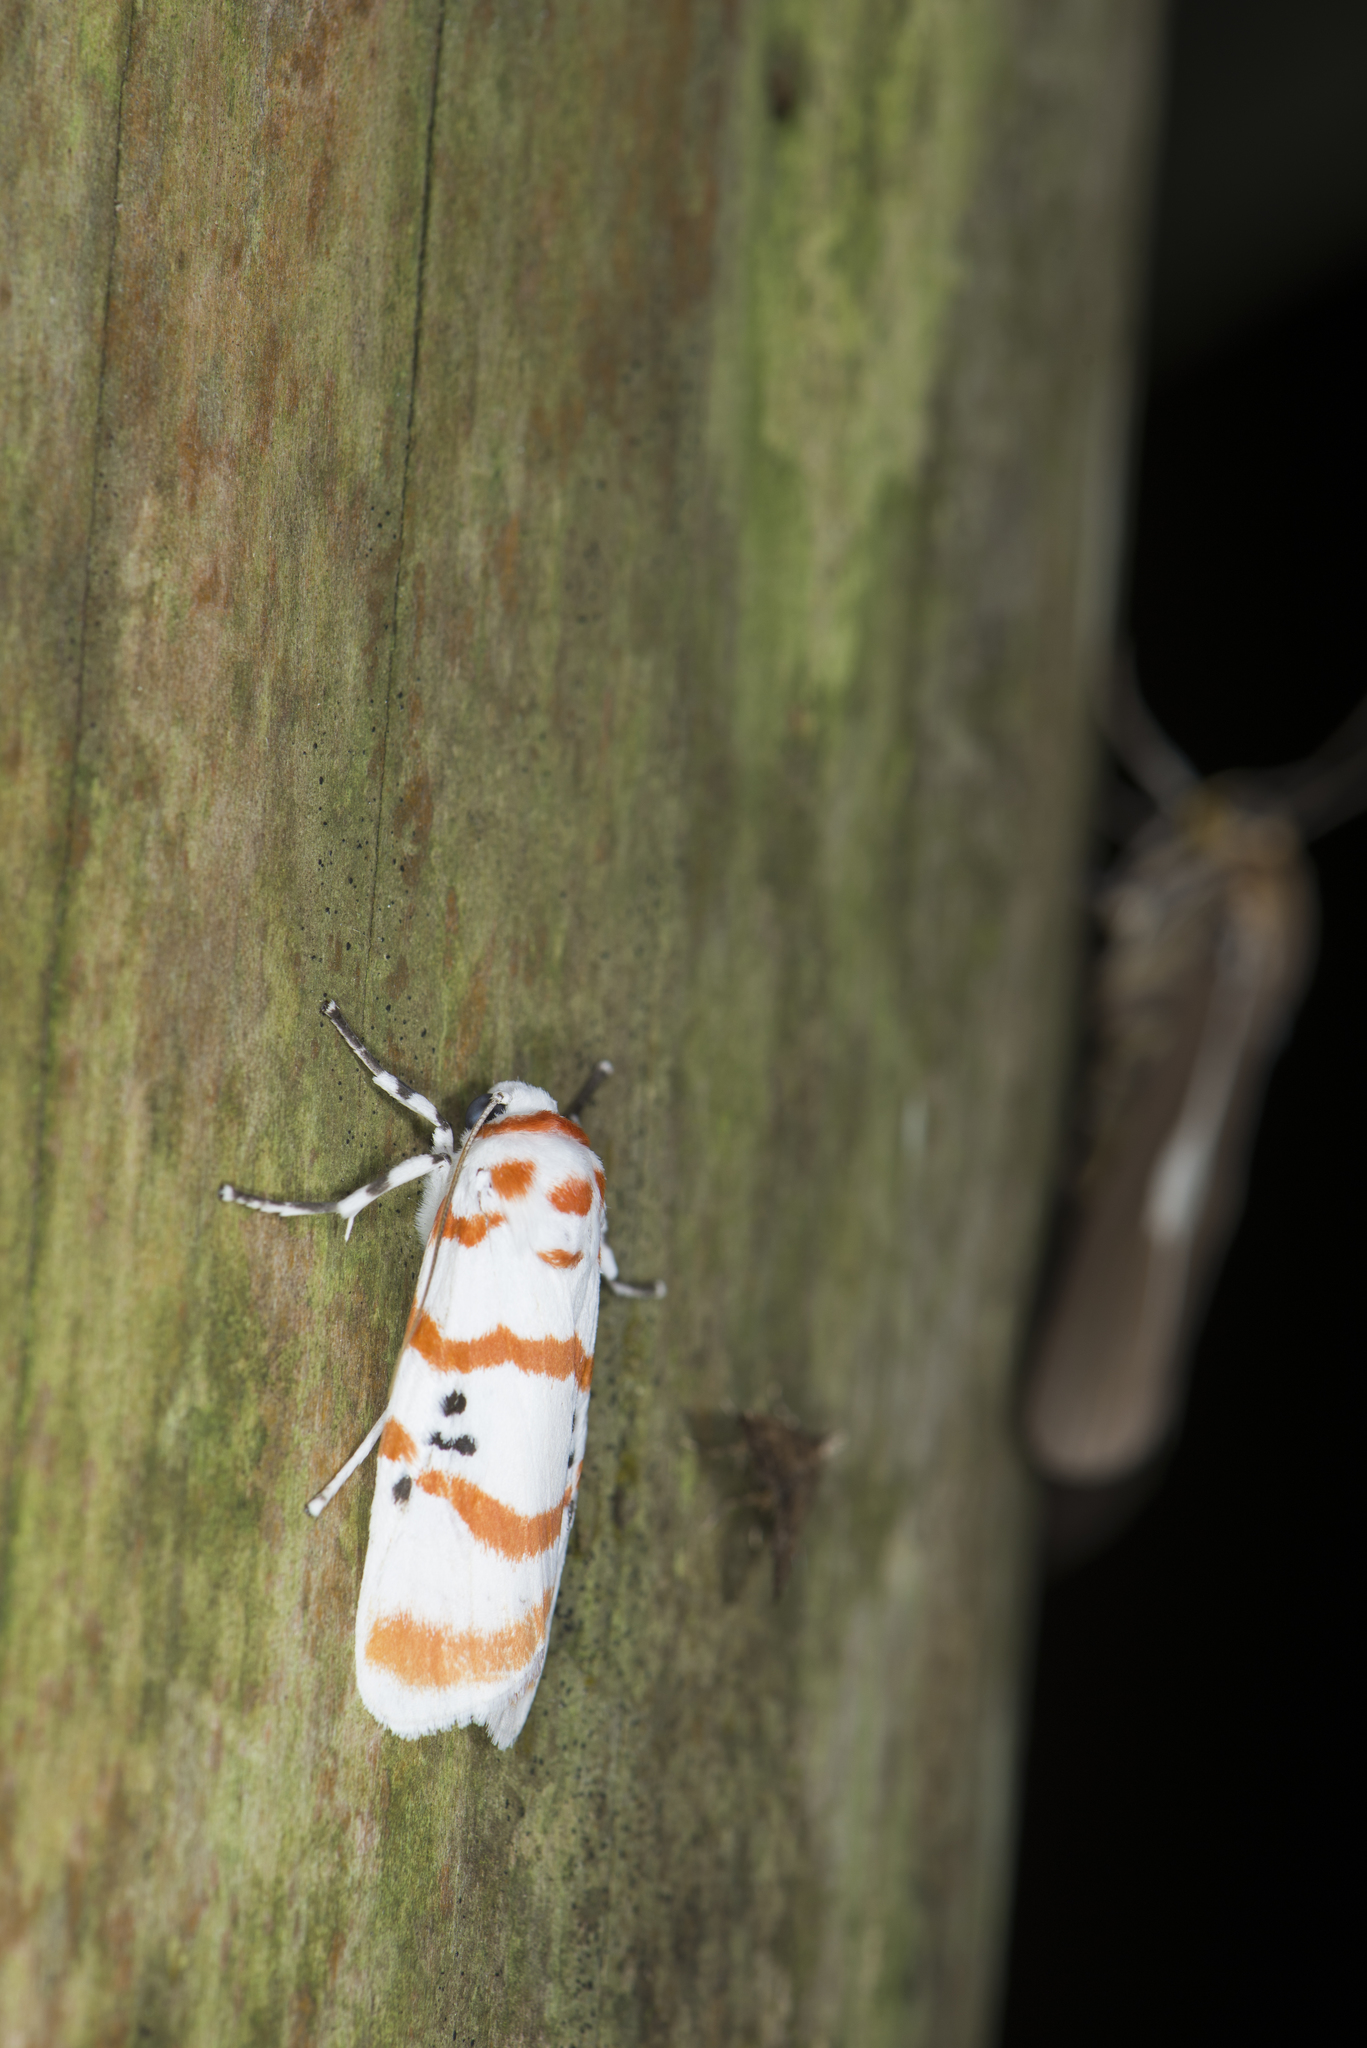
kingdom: Animalia
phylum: Arthropoda
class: Insecta
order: Lepidoptera
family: Erebidae
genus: Cyana
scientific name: Cyana subalba
